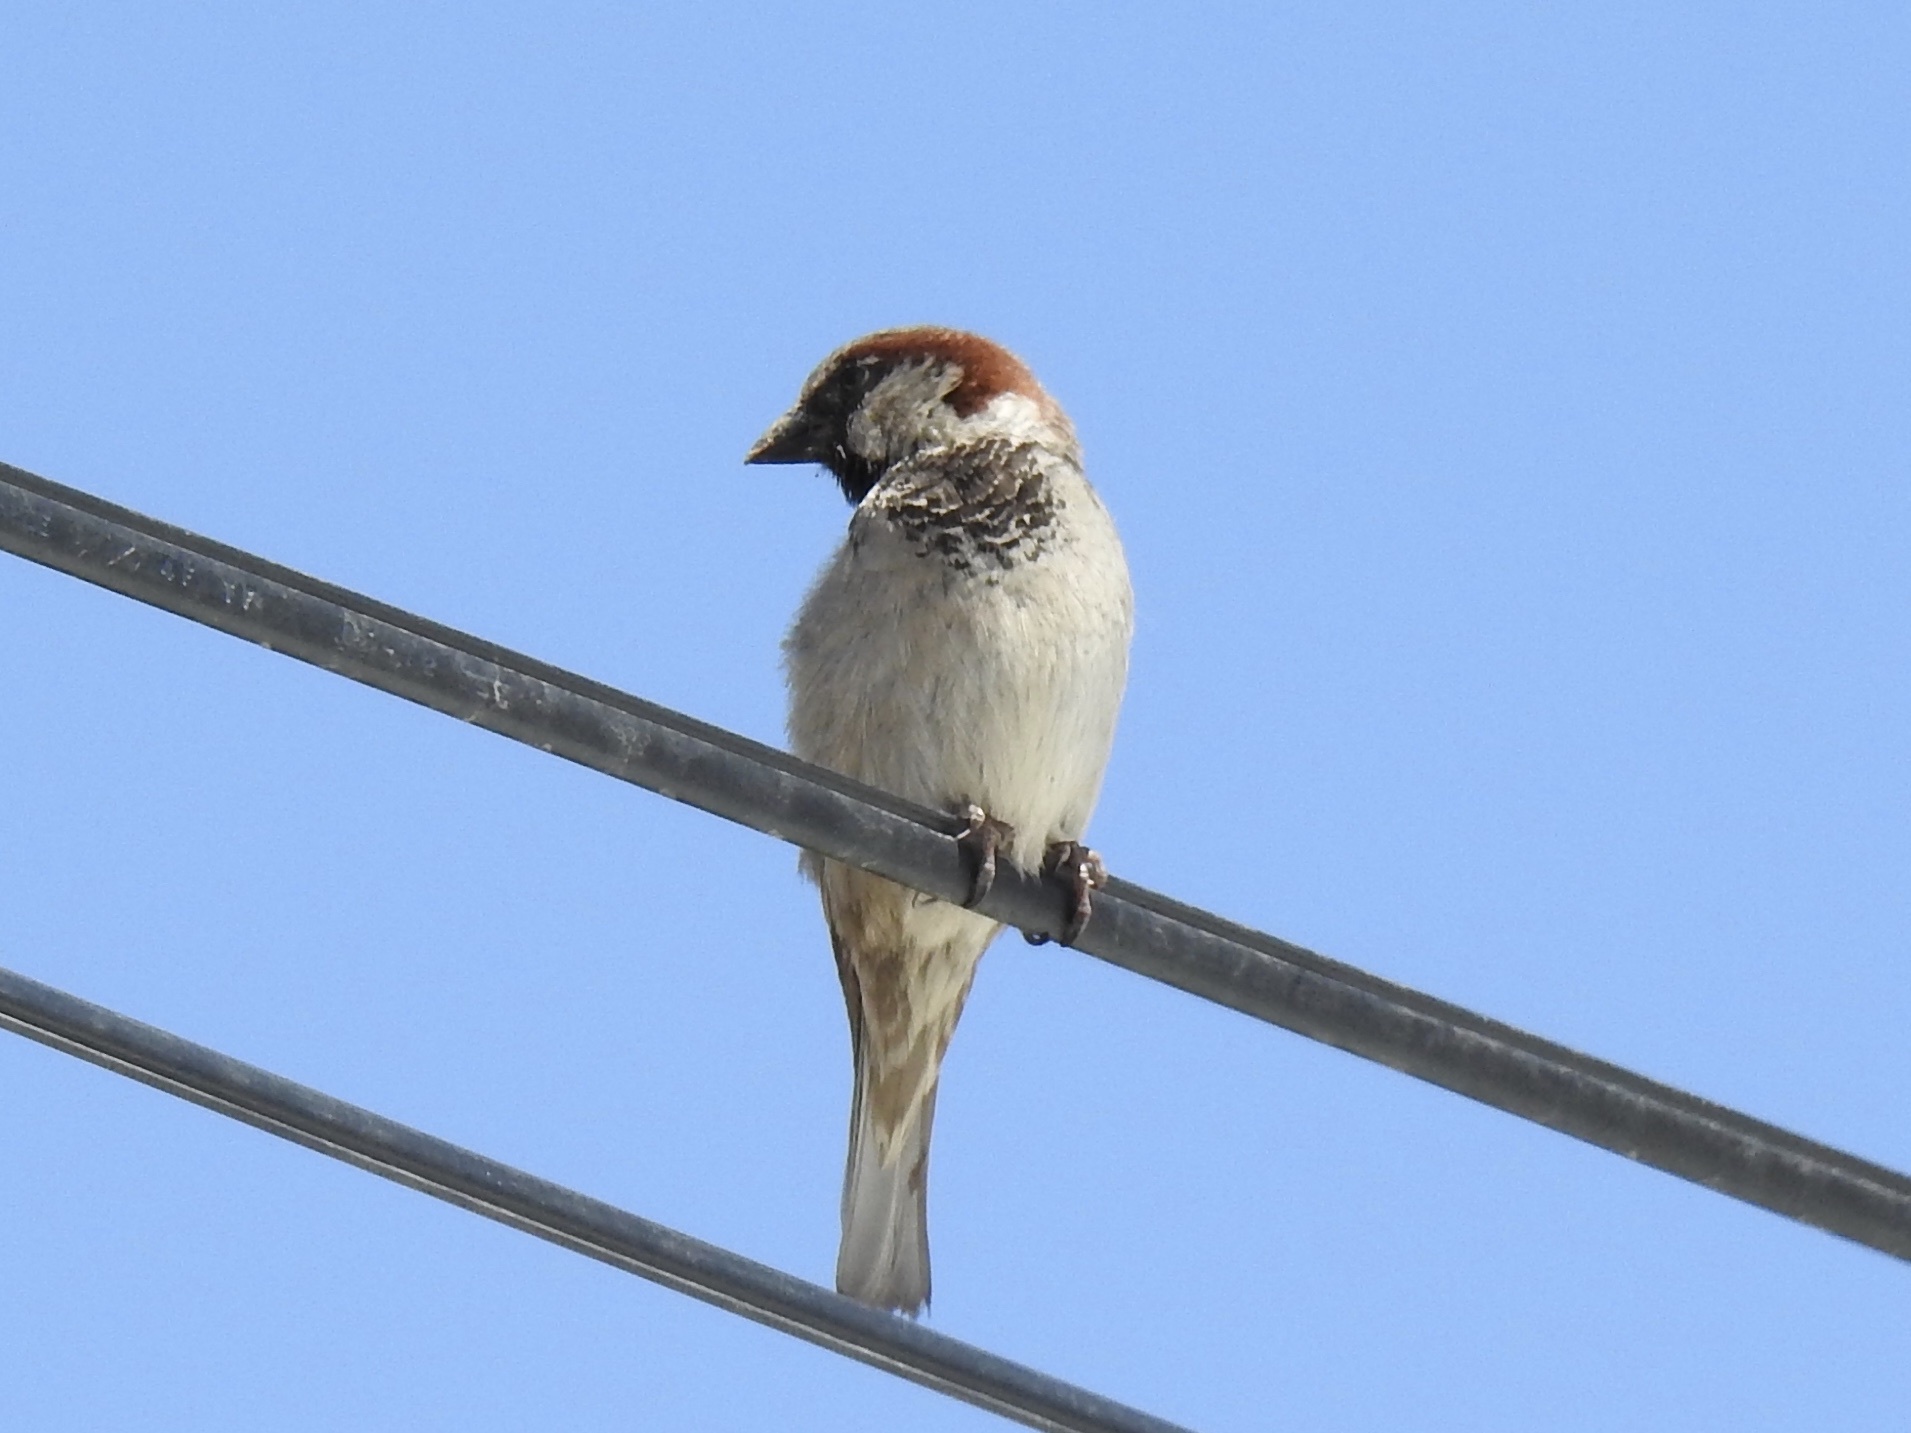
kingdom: Animalia
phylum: Chordata
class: Aves
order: Passeriformes
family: Passeridae
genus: Passer
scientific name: Passer domesticus
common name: House sparrow
